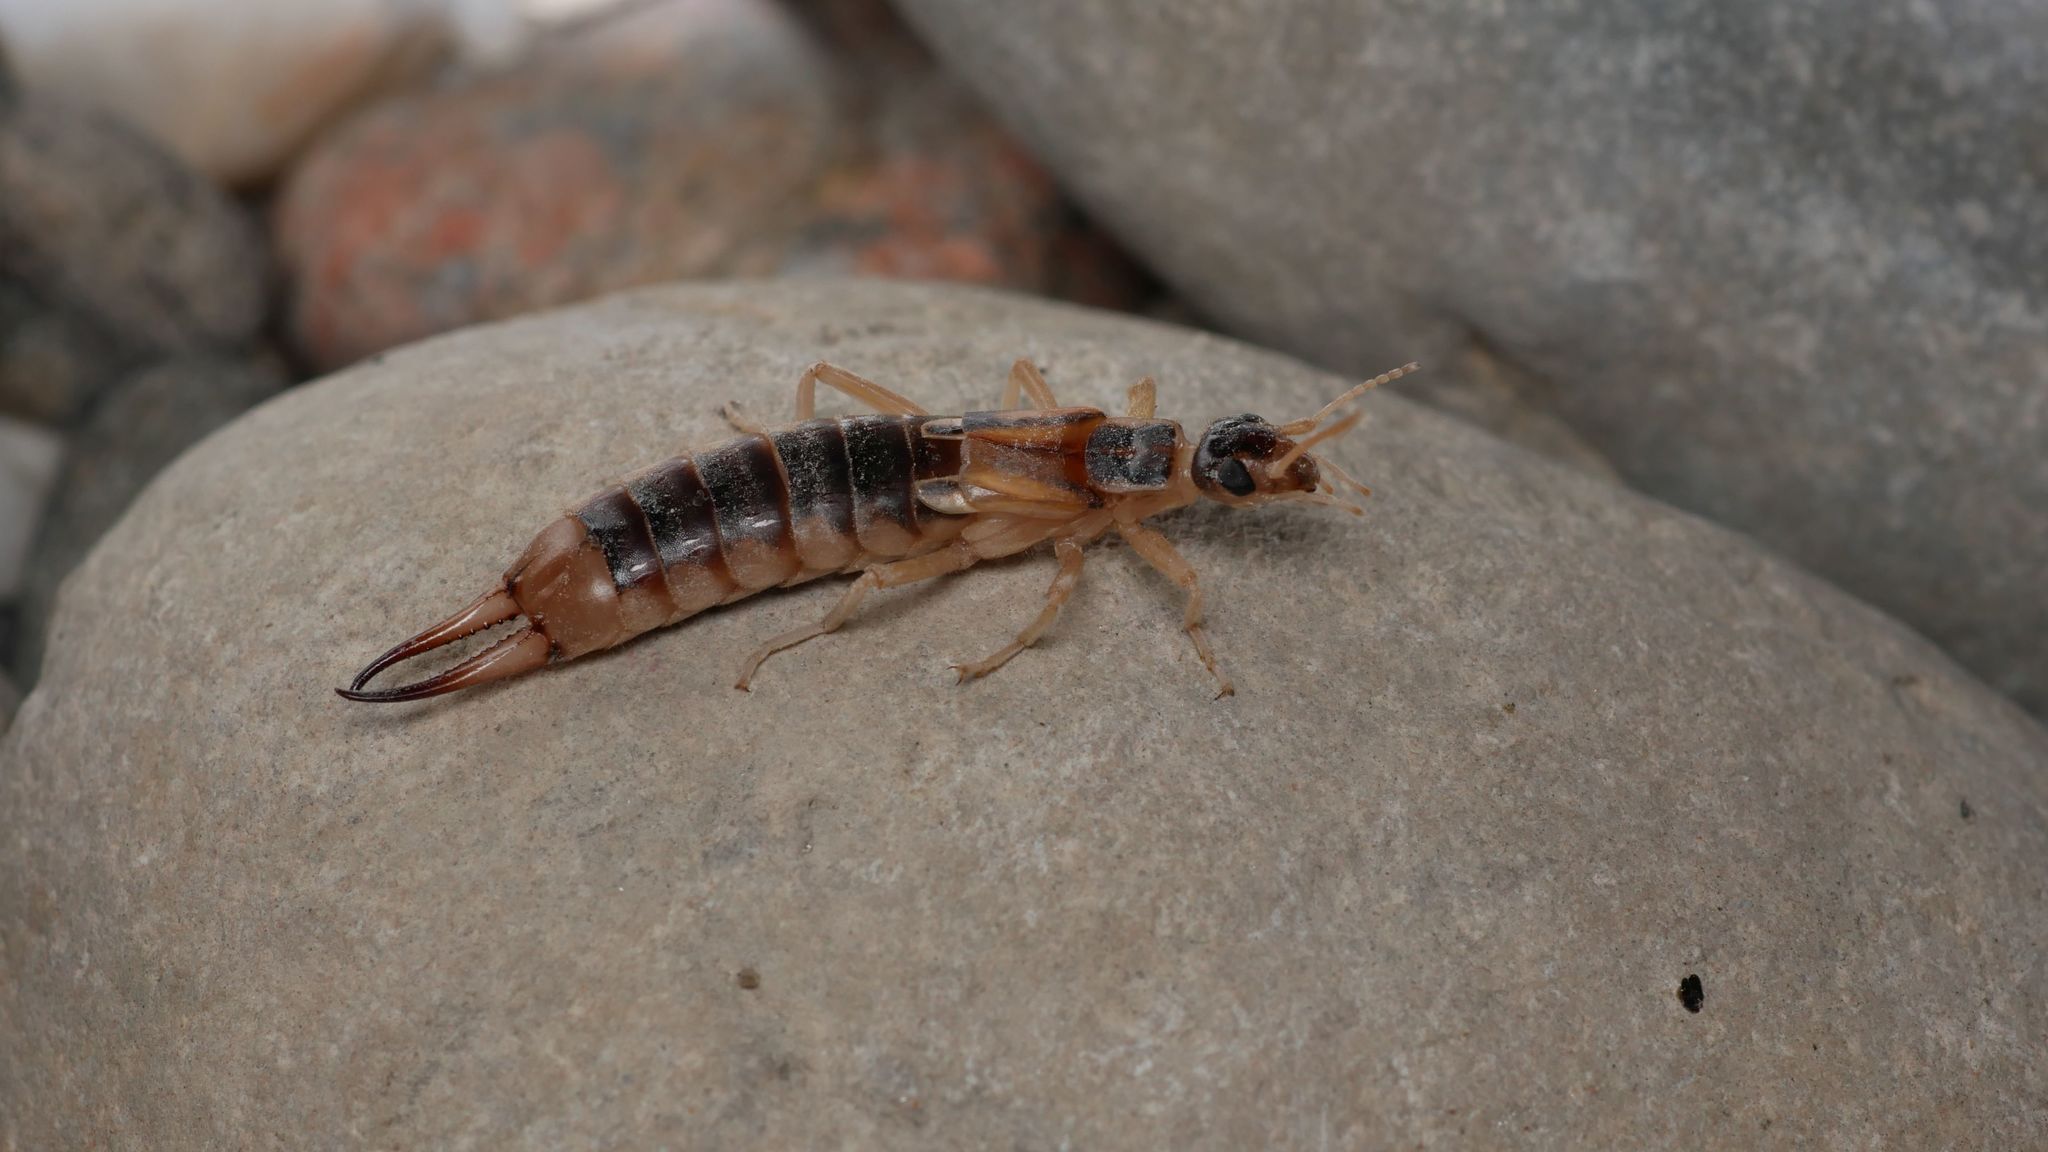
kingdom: Animalia
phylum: Arthropoda
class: Insecta
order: Dermaptera
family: Labiduridae
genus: Labidura
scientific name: Labidura riparia
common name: Striped earwig
